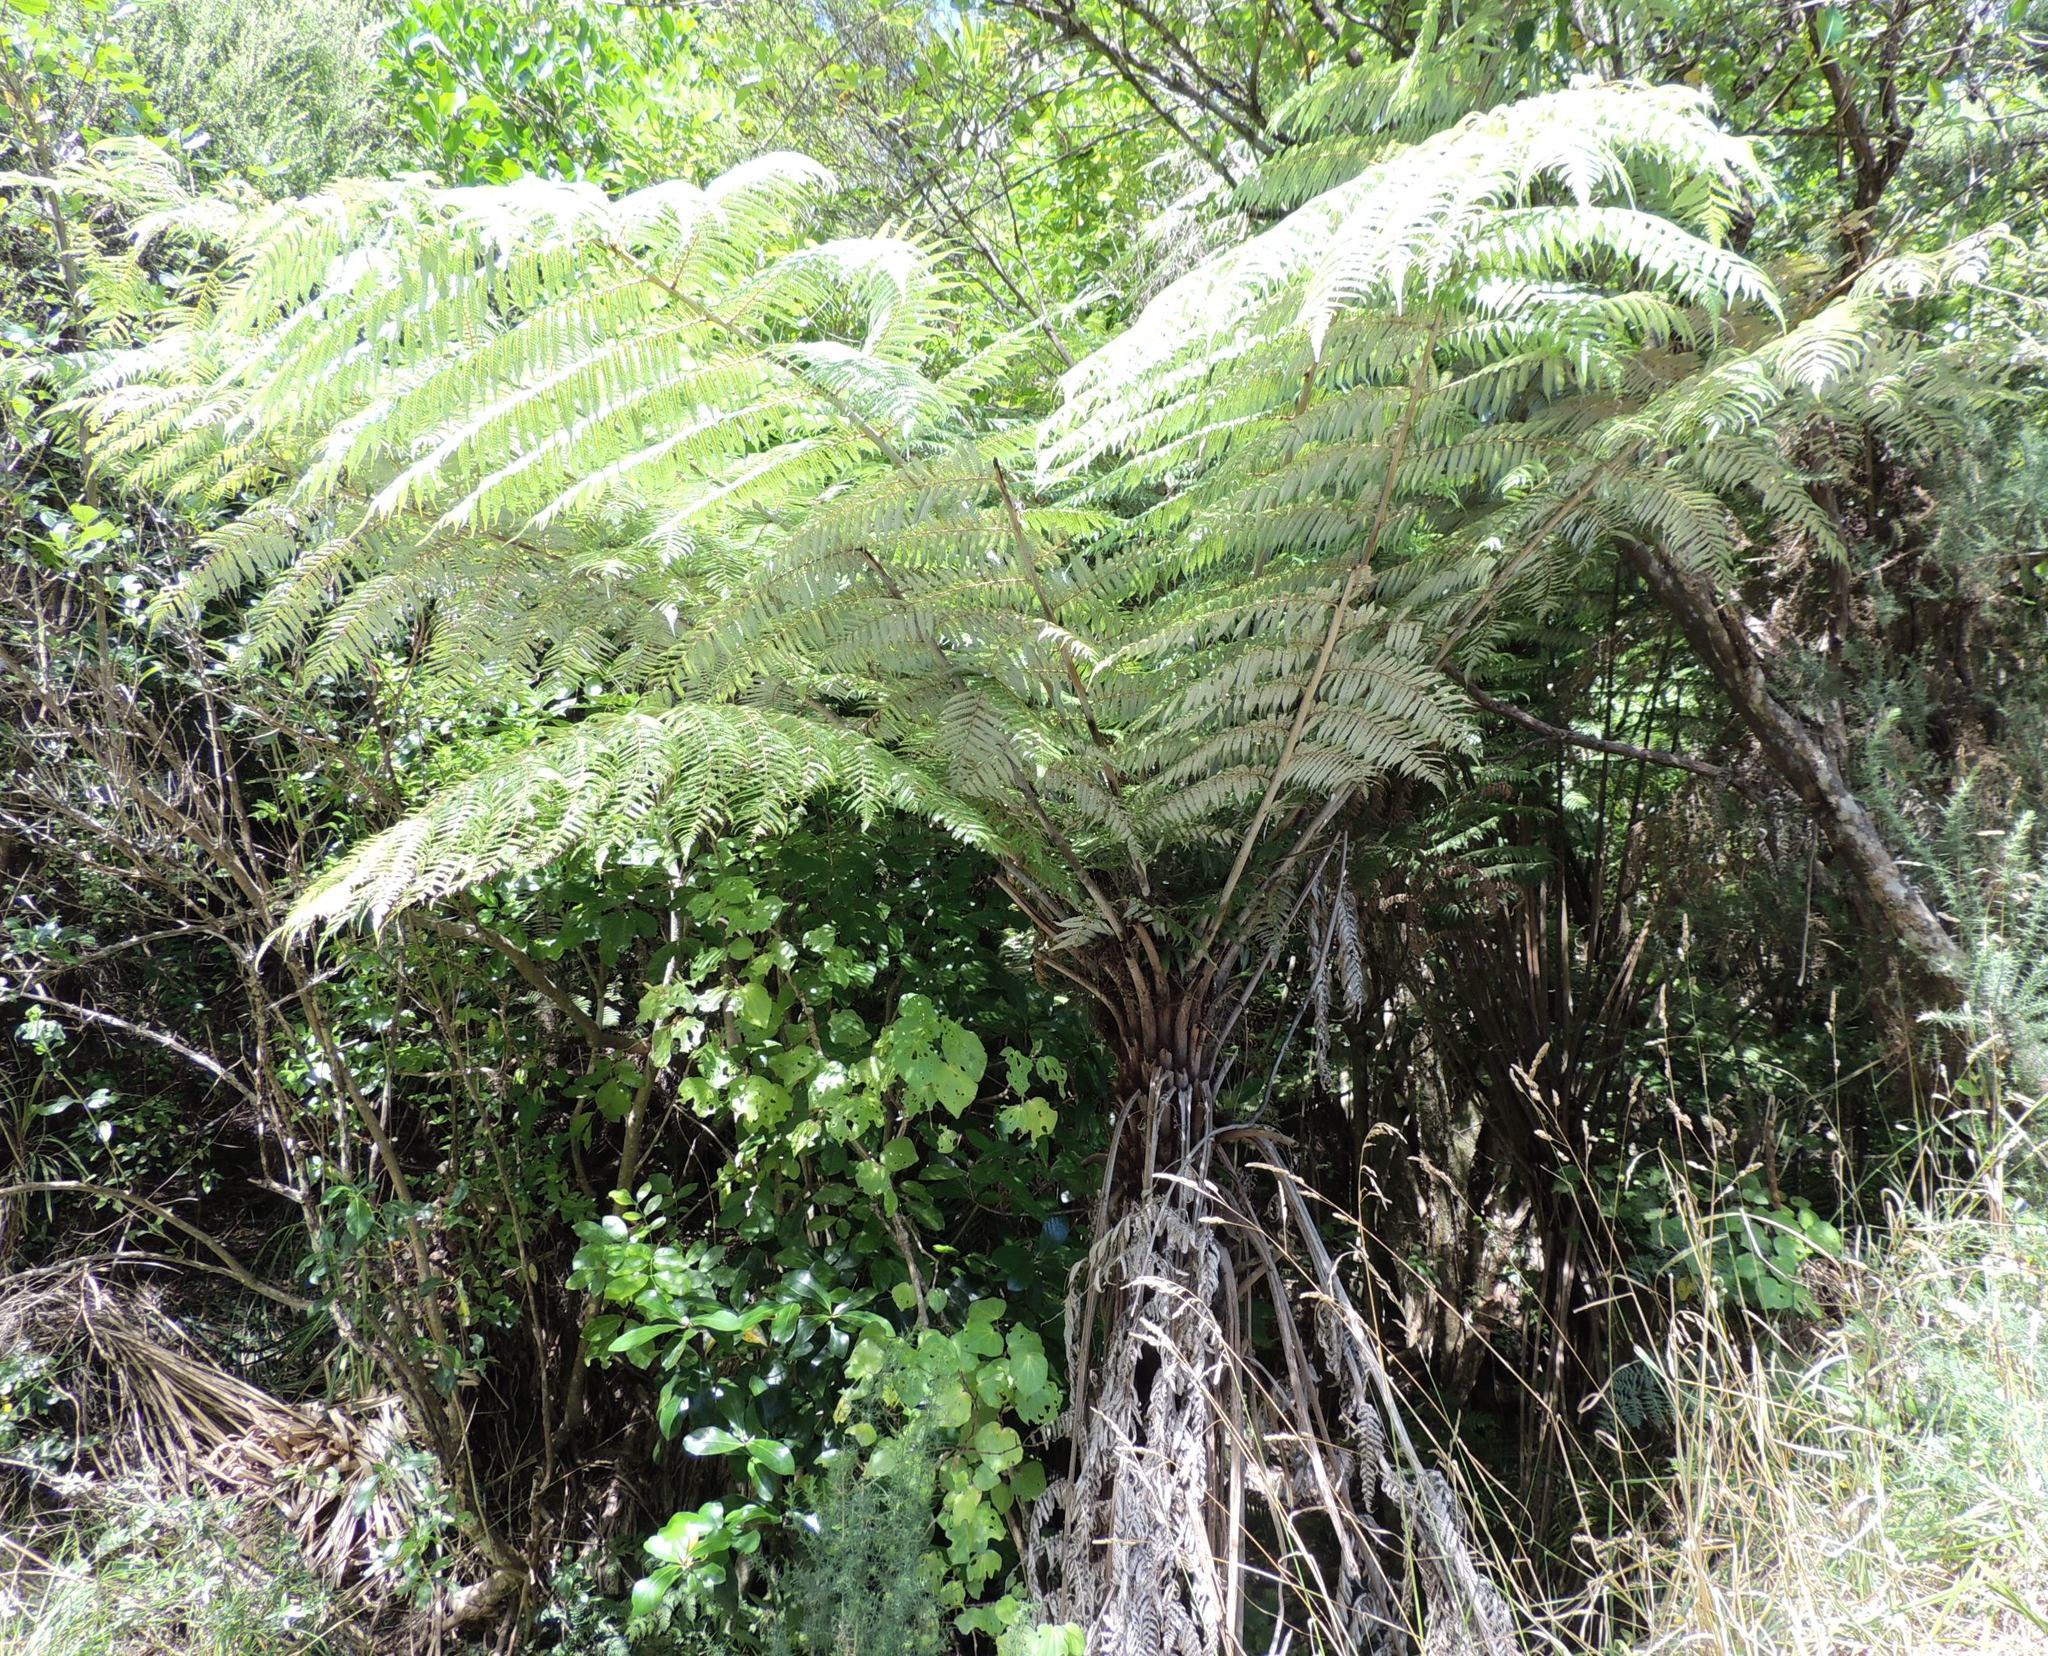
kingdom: Plantae
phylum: Tracheophyta
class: Polypodiopsida
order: Cyatheales
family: Cyatheaceae
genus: Alsophila
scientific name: Alsophila dealbata
